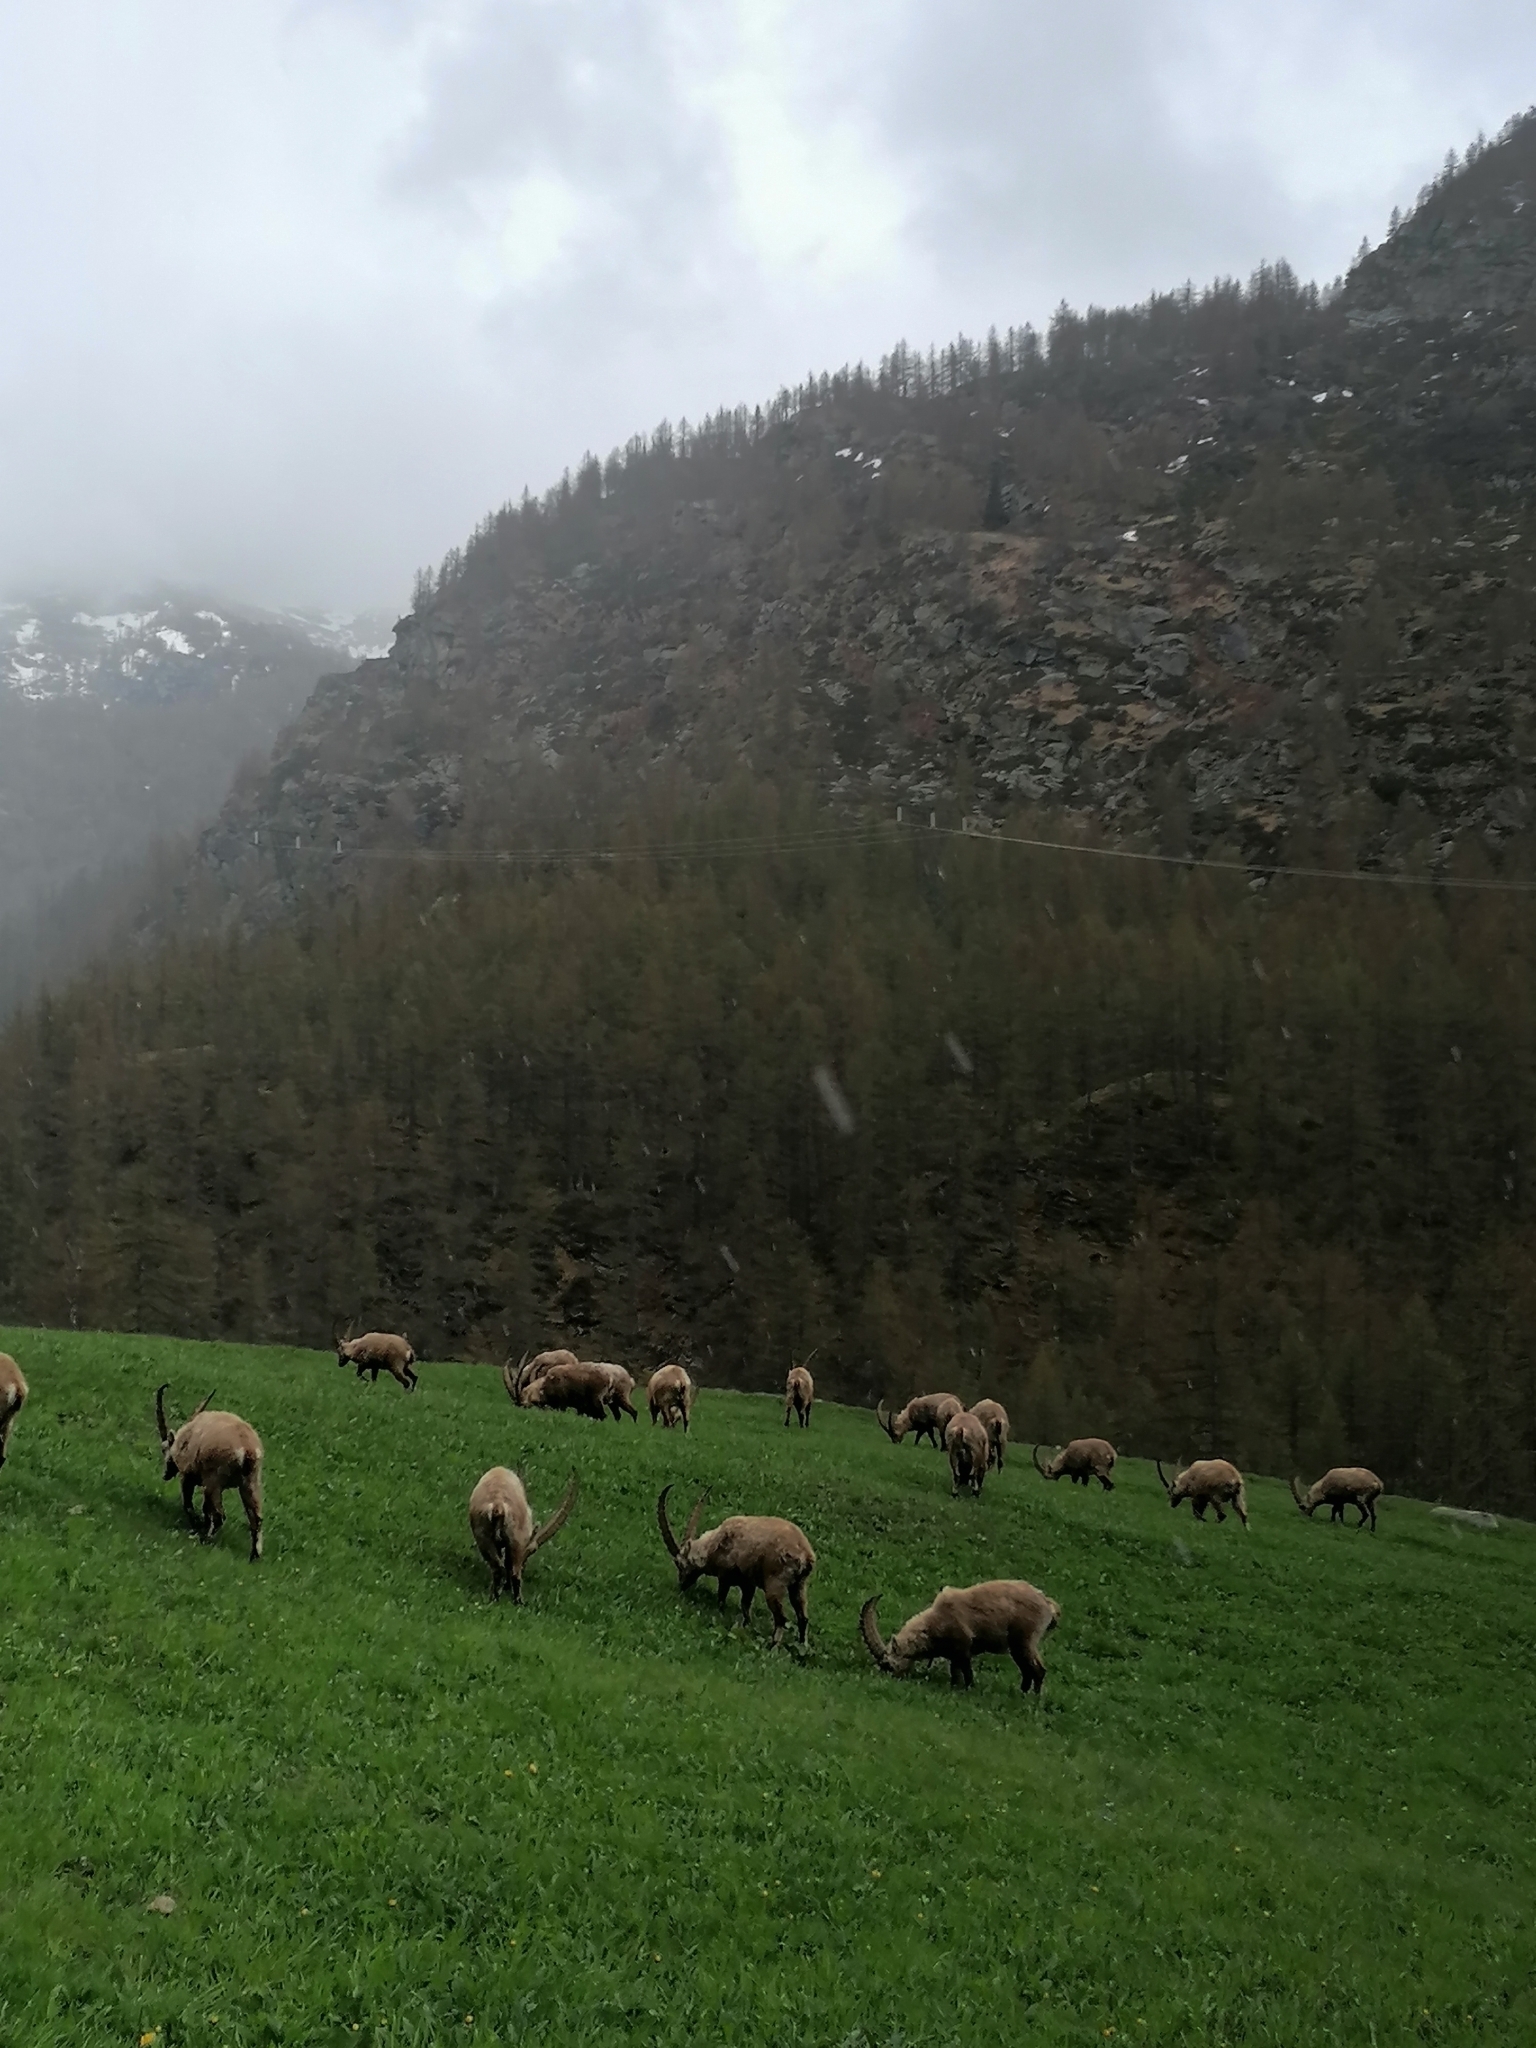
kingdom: Animalia
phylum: Chordata
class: Mammalia
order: Artiodactyla
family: Bovidae
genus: Capra
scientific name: Capra ibex
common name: Alpine ibex
